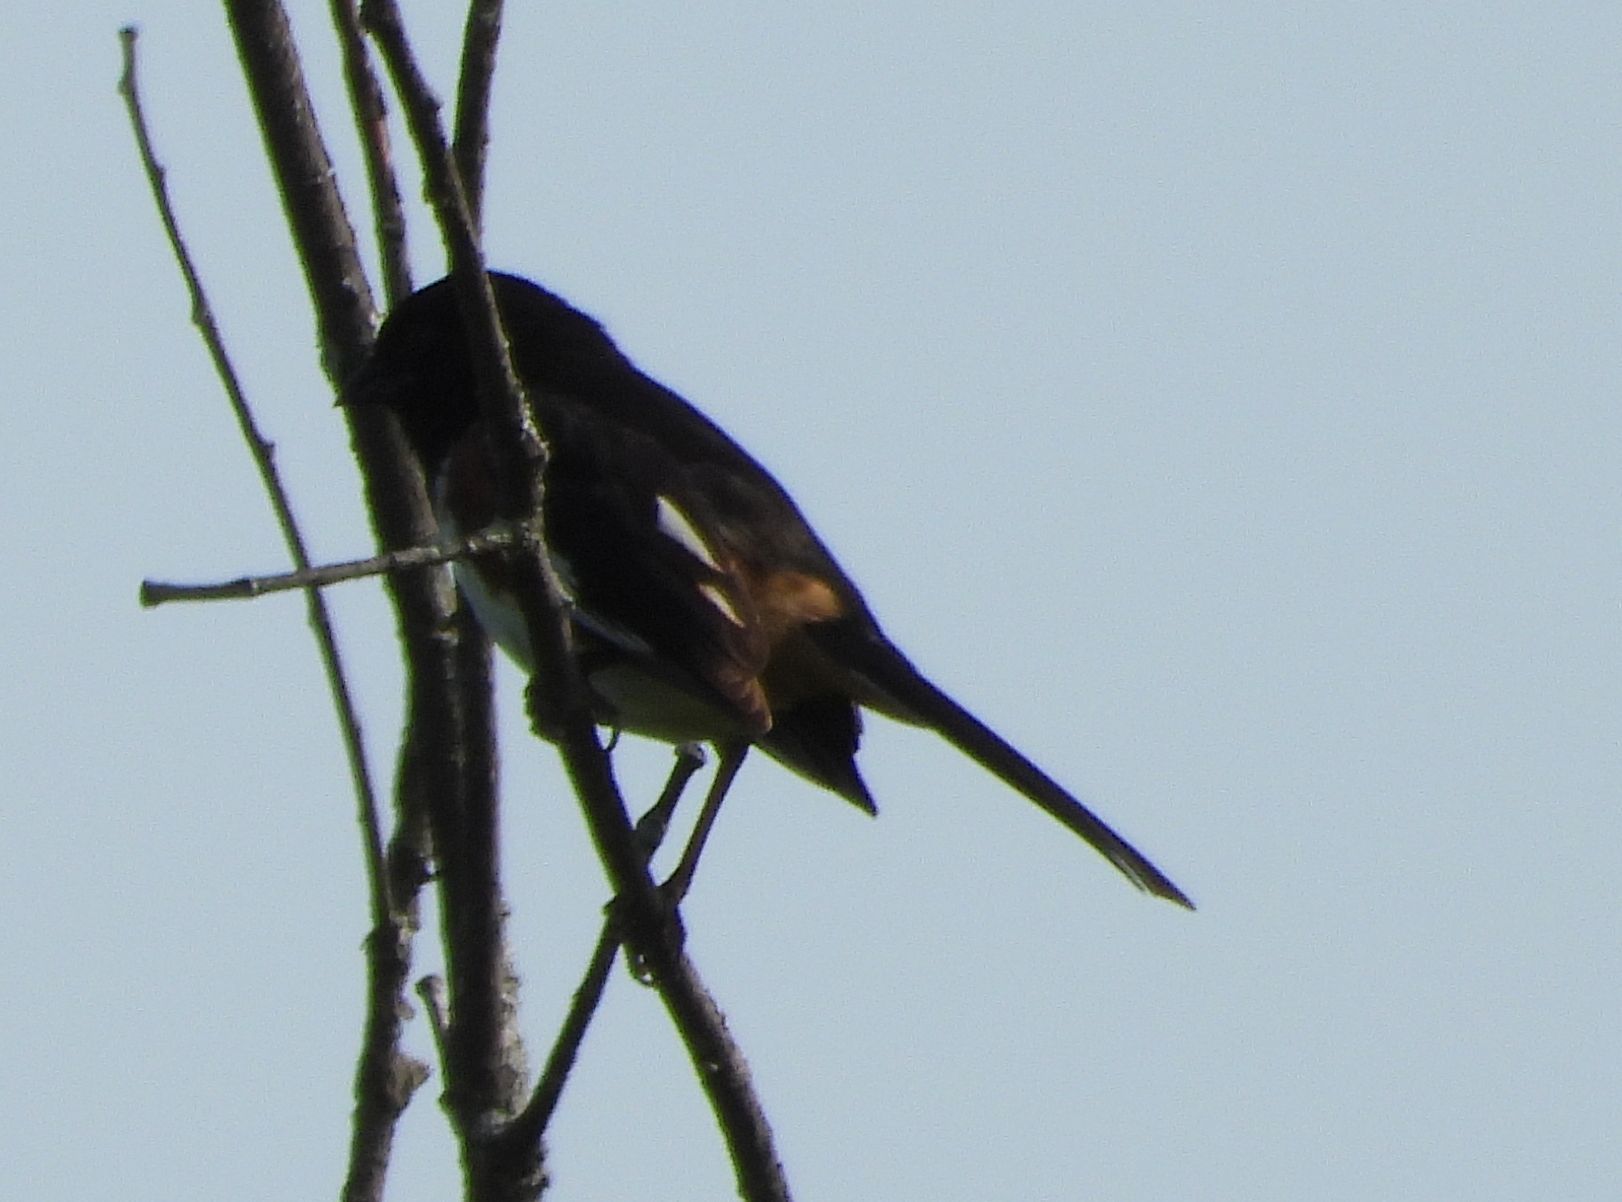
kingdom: Animalia
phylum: Chordata
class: Aves
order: Passeriformes
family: Passerellidae
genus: Pipilo
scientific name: Pipilo erythrophthalmus
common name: Eastern towhee
